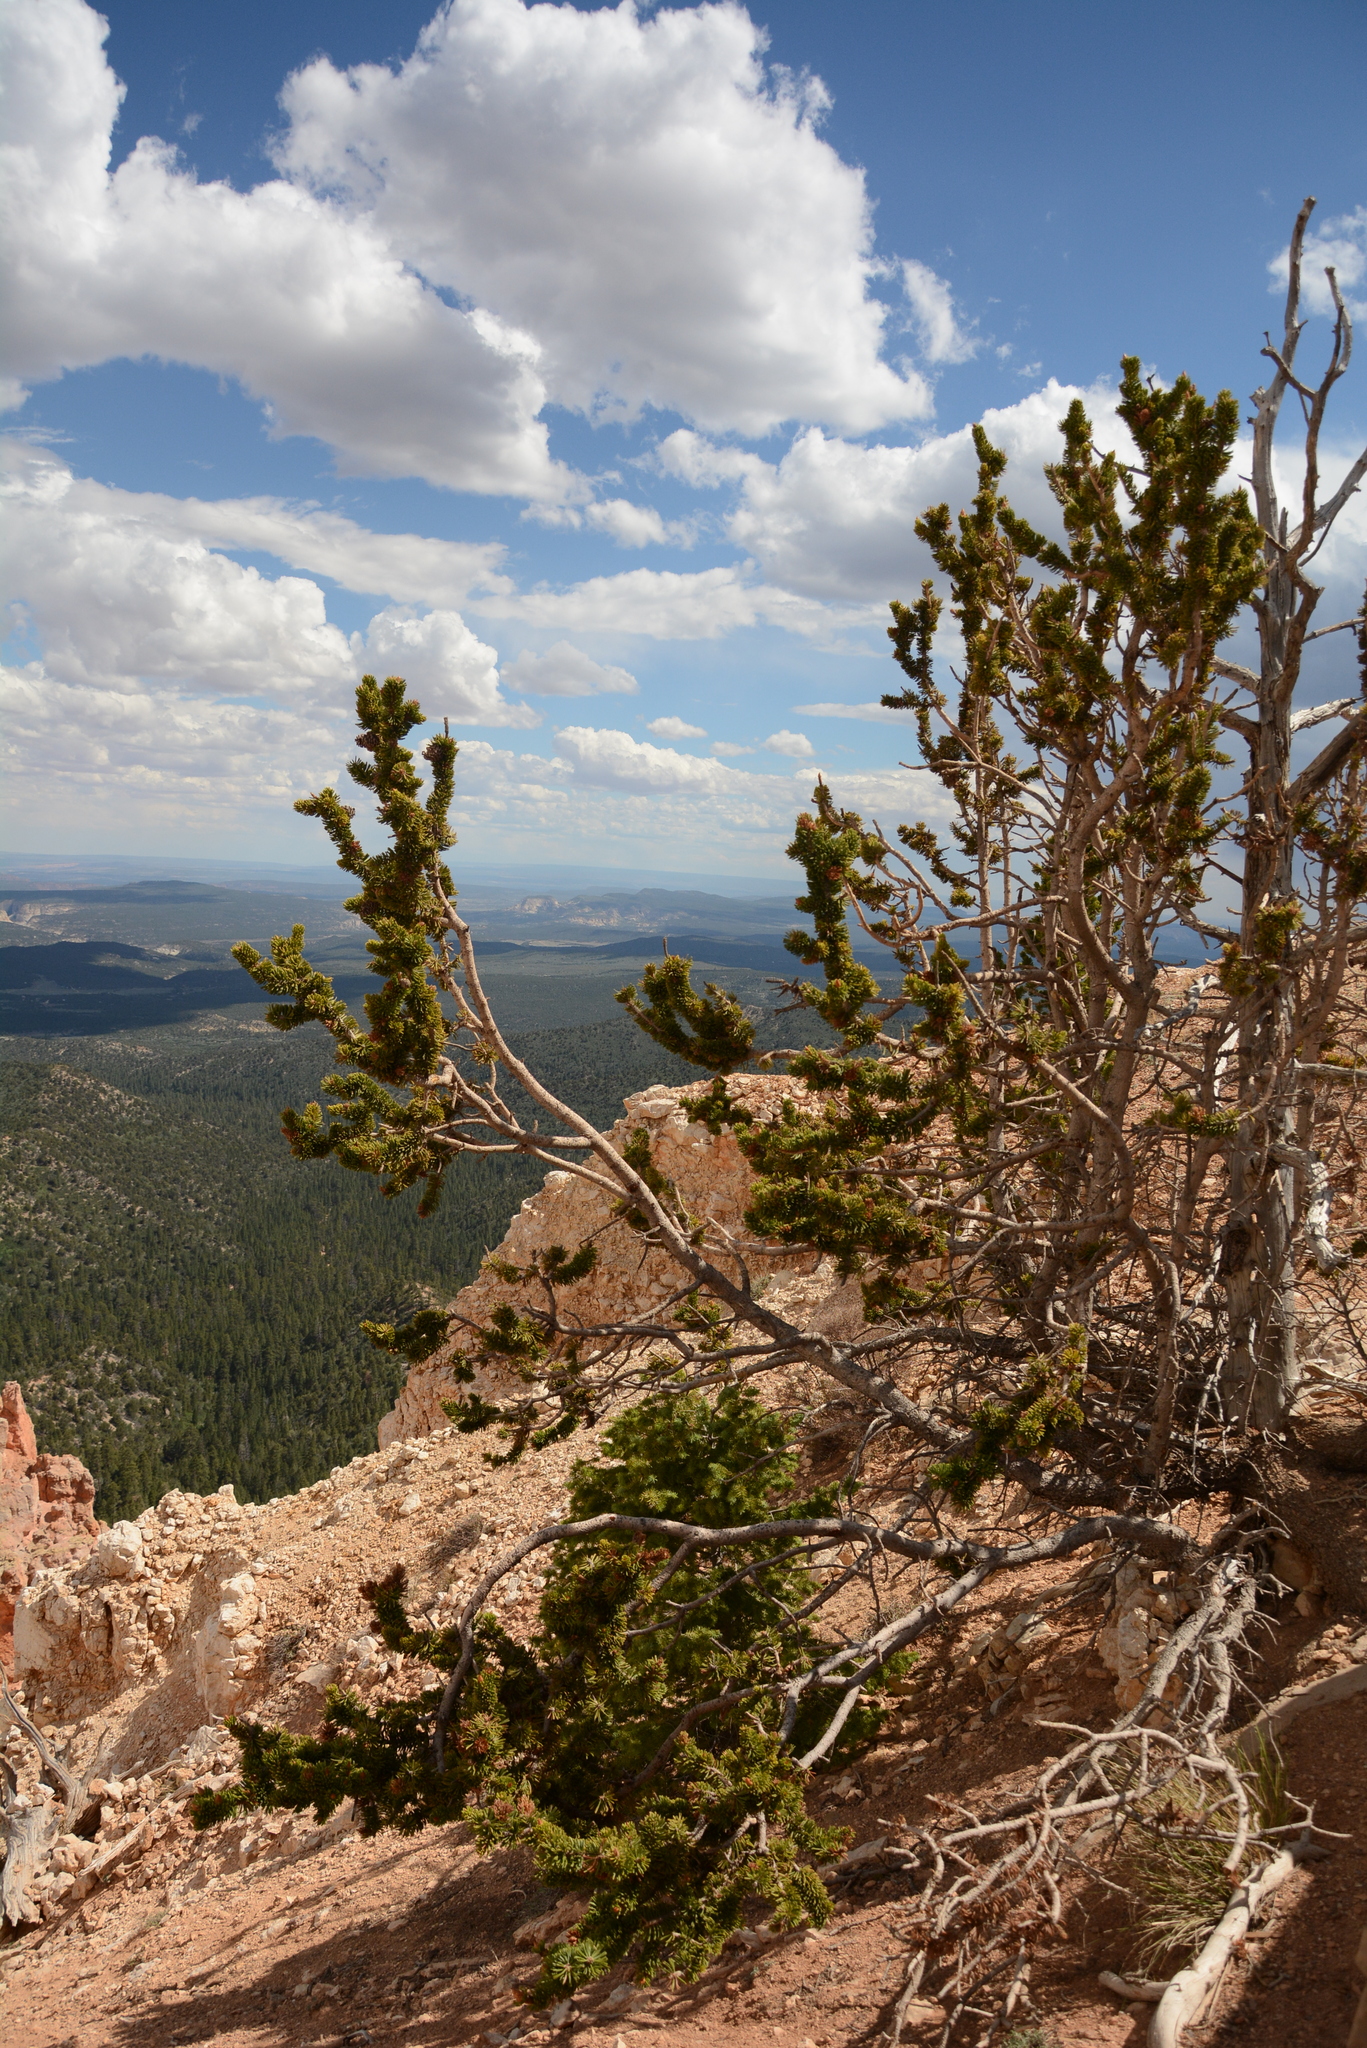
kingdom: Plantae
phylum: Tracheophyta
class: Pinopsida
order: Pinales
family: Pinaceae
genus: Pinus
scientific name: Pinus longaeva
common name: Intermountain bristlecone pine
